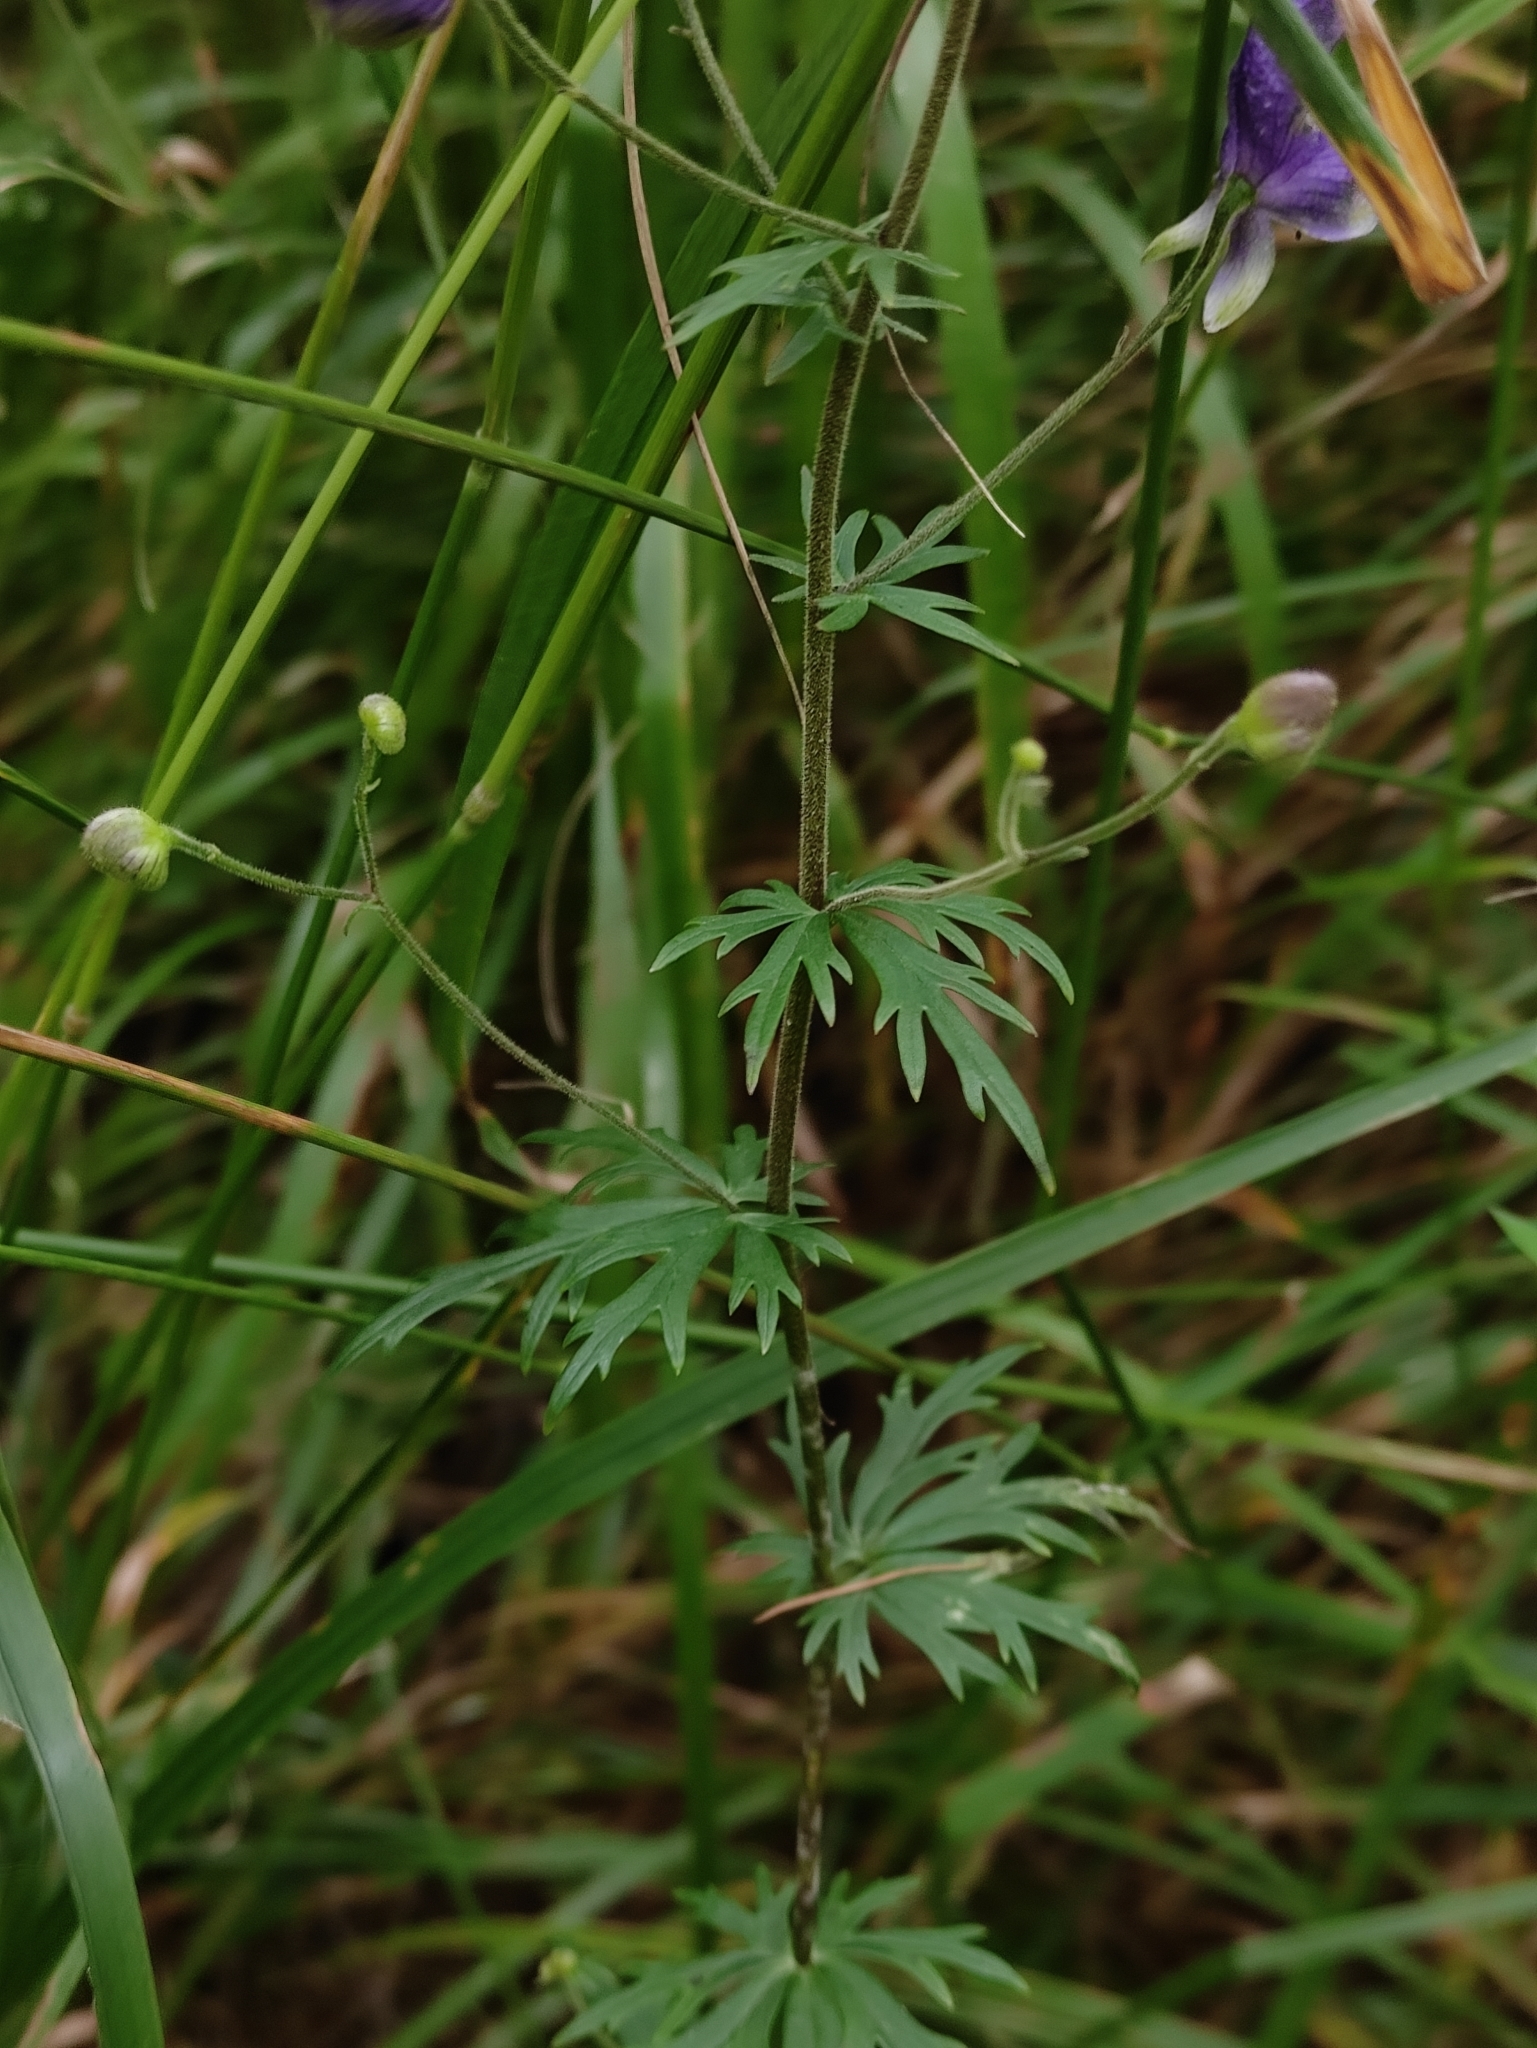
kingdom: Plantae
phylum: Tracheophyta
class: Magnoliopsida
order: Ranunculales
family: Ranunculaceae
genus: Aconitum
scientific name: Aconitum baicalense
